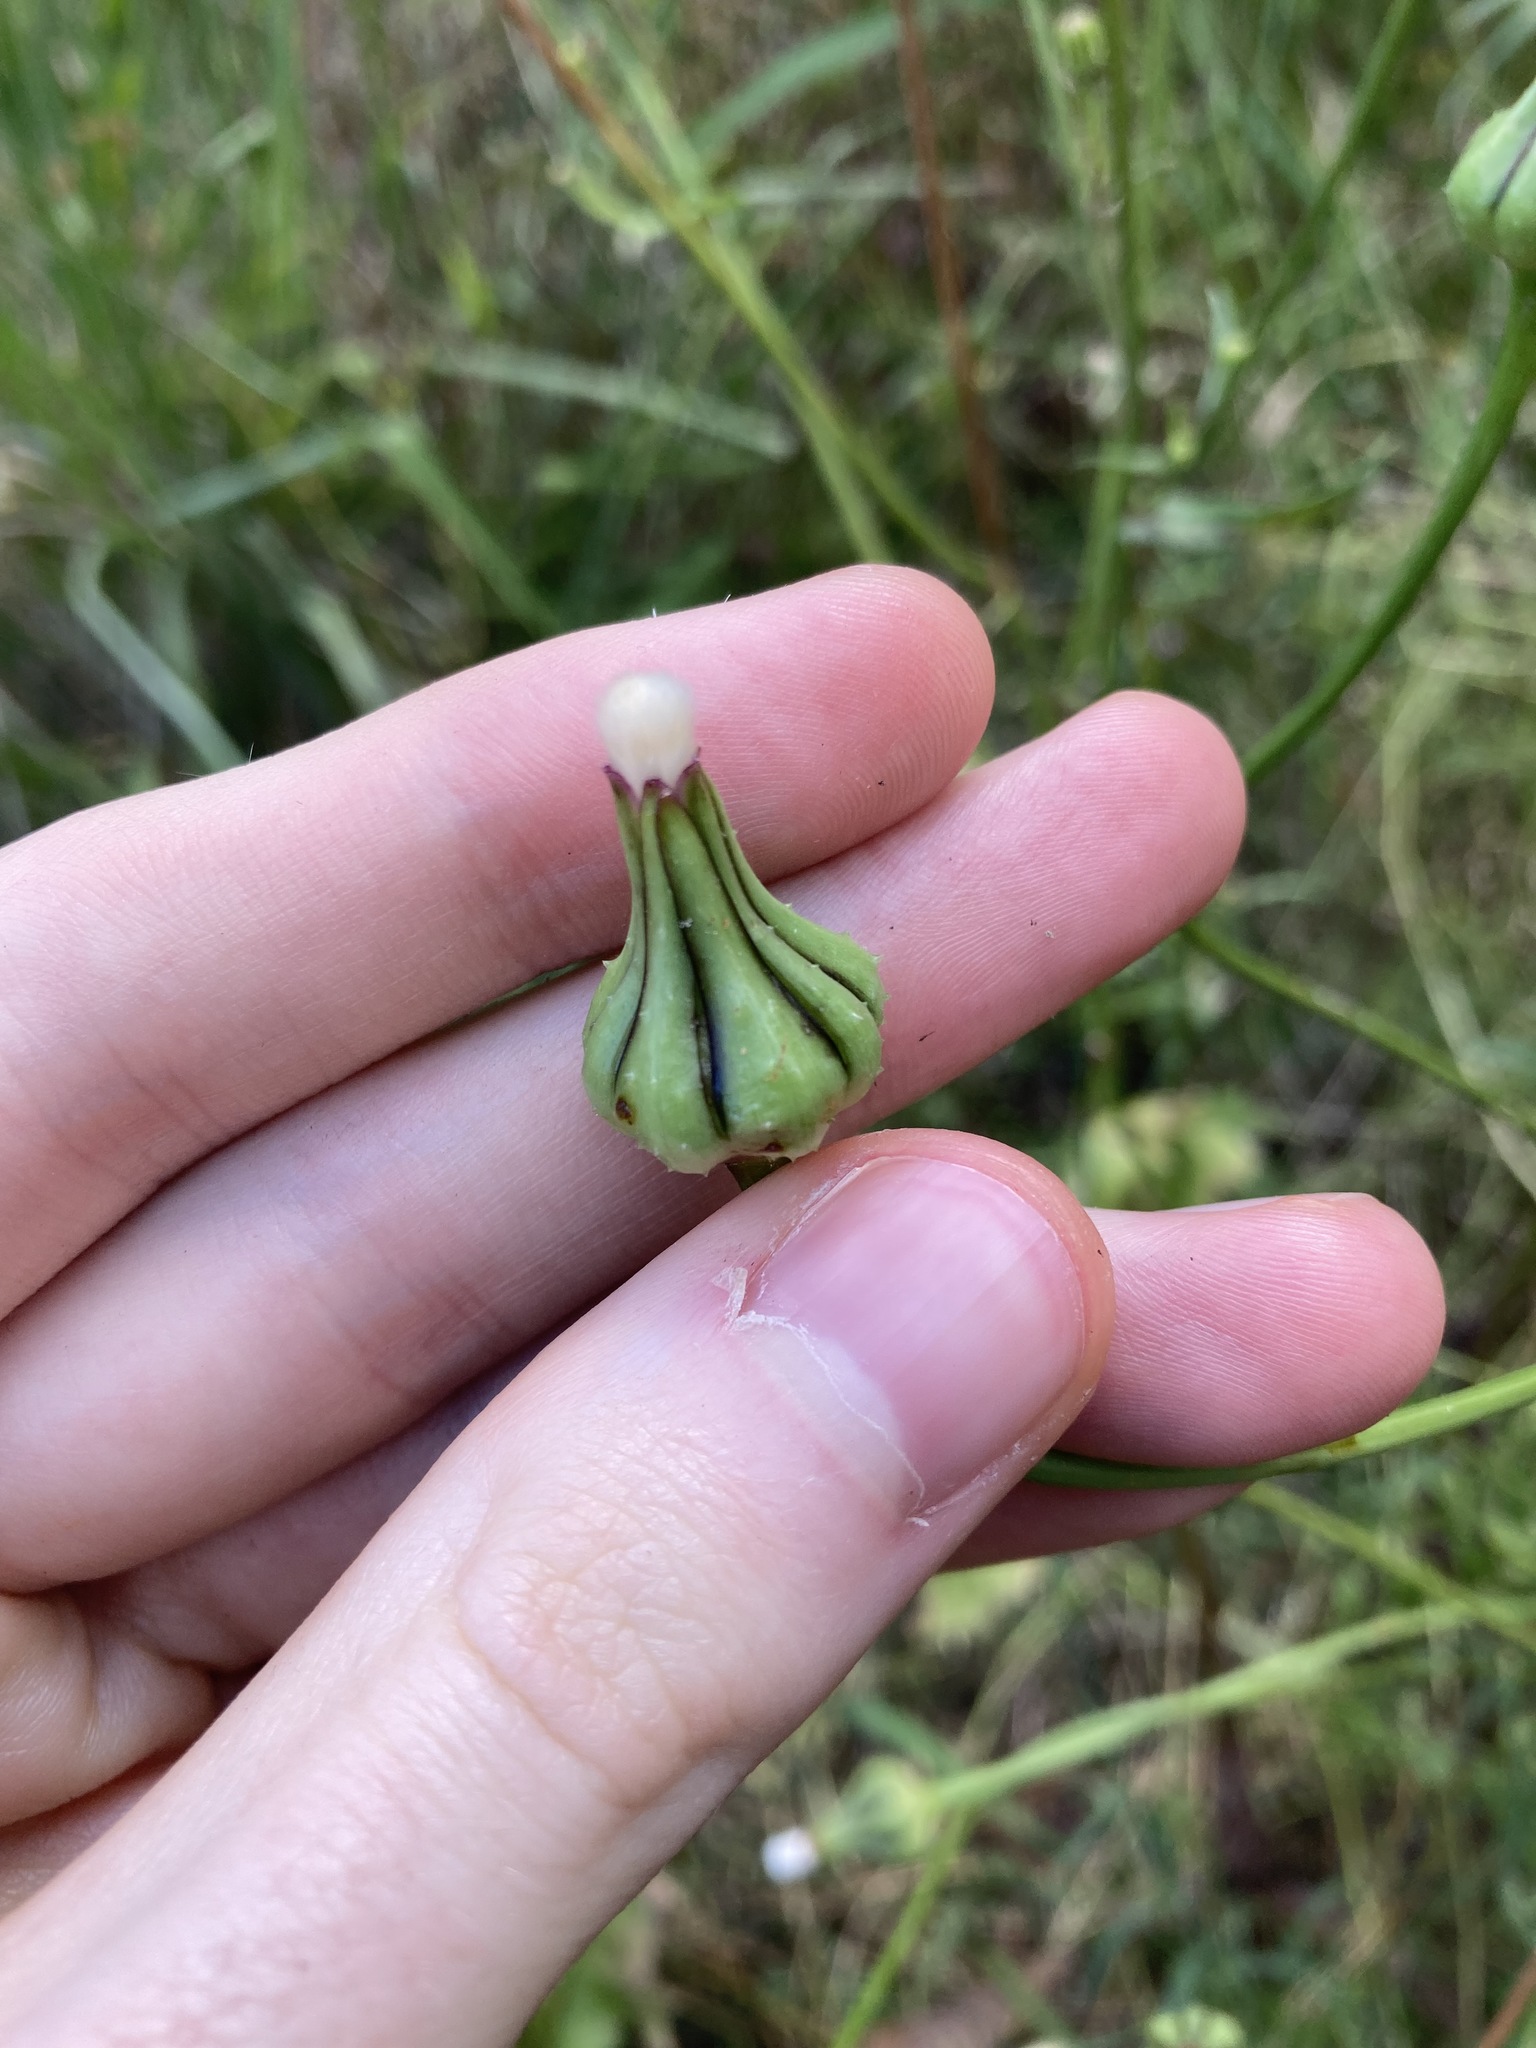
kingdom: Plantae
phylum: Tracheophyta
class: Magnoliopsida
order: Asterales
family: Asteraceae
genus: Urospermum
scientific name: Urospermum picroides
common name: False hawkbit
